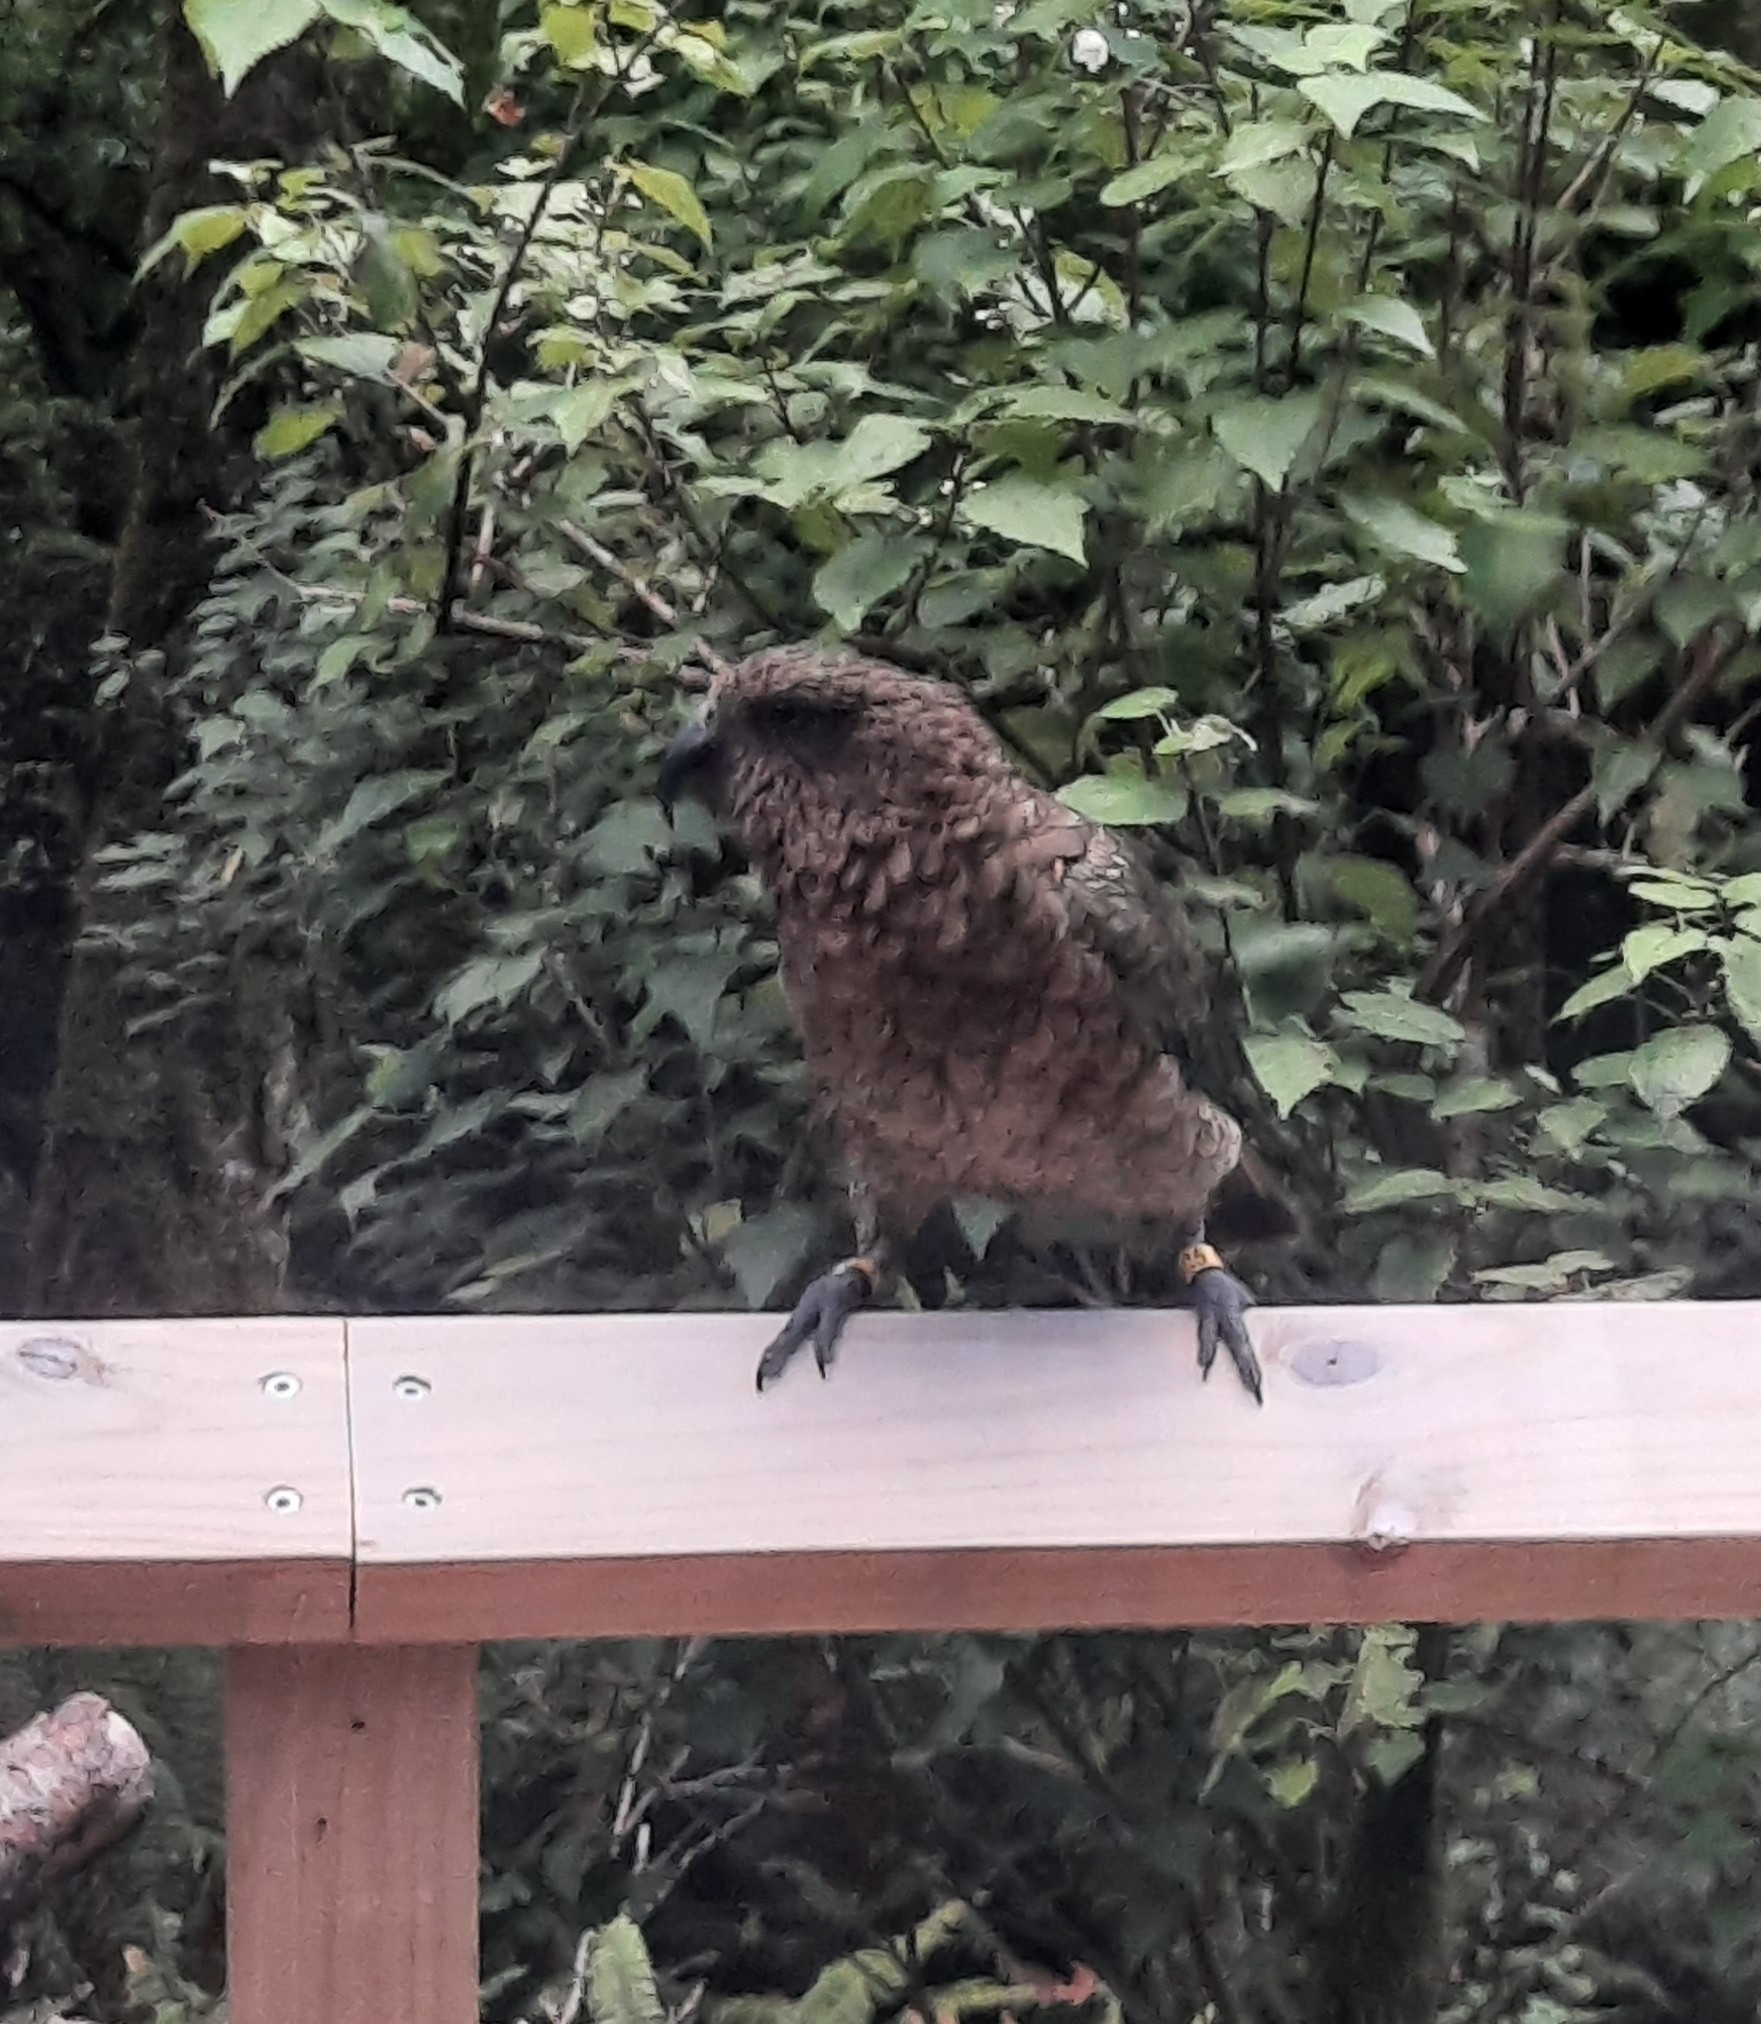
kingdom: Animalia
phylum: Chordata
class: Aves
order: Psittaciformes
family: Psittacidae
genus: Nestor
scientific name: Nestor notabilis
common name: Kea
